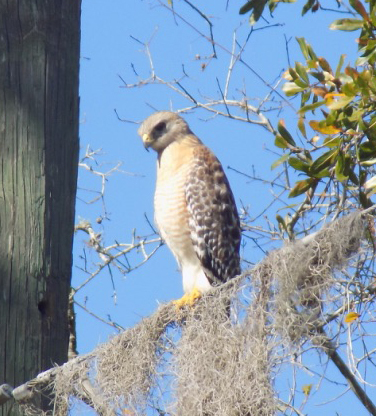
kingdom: Animalia
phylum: Chordata
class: Aves
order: Accipitriformes
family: Accipitridae
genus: Buteo
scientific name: Buteo lineatus
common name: Red-shouldered hawk
